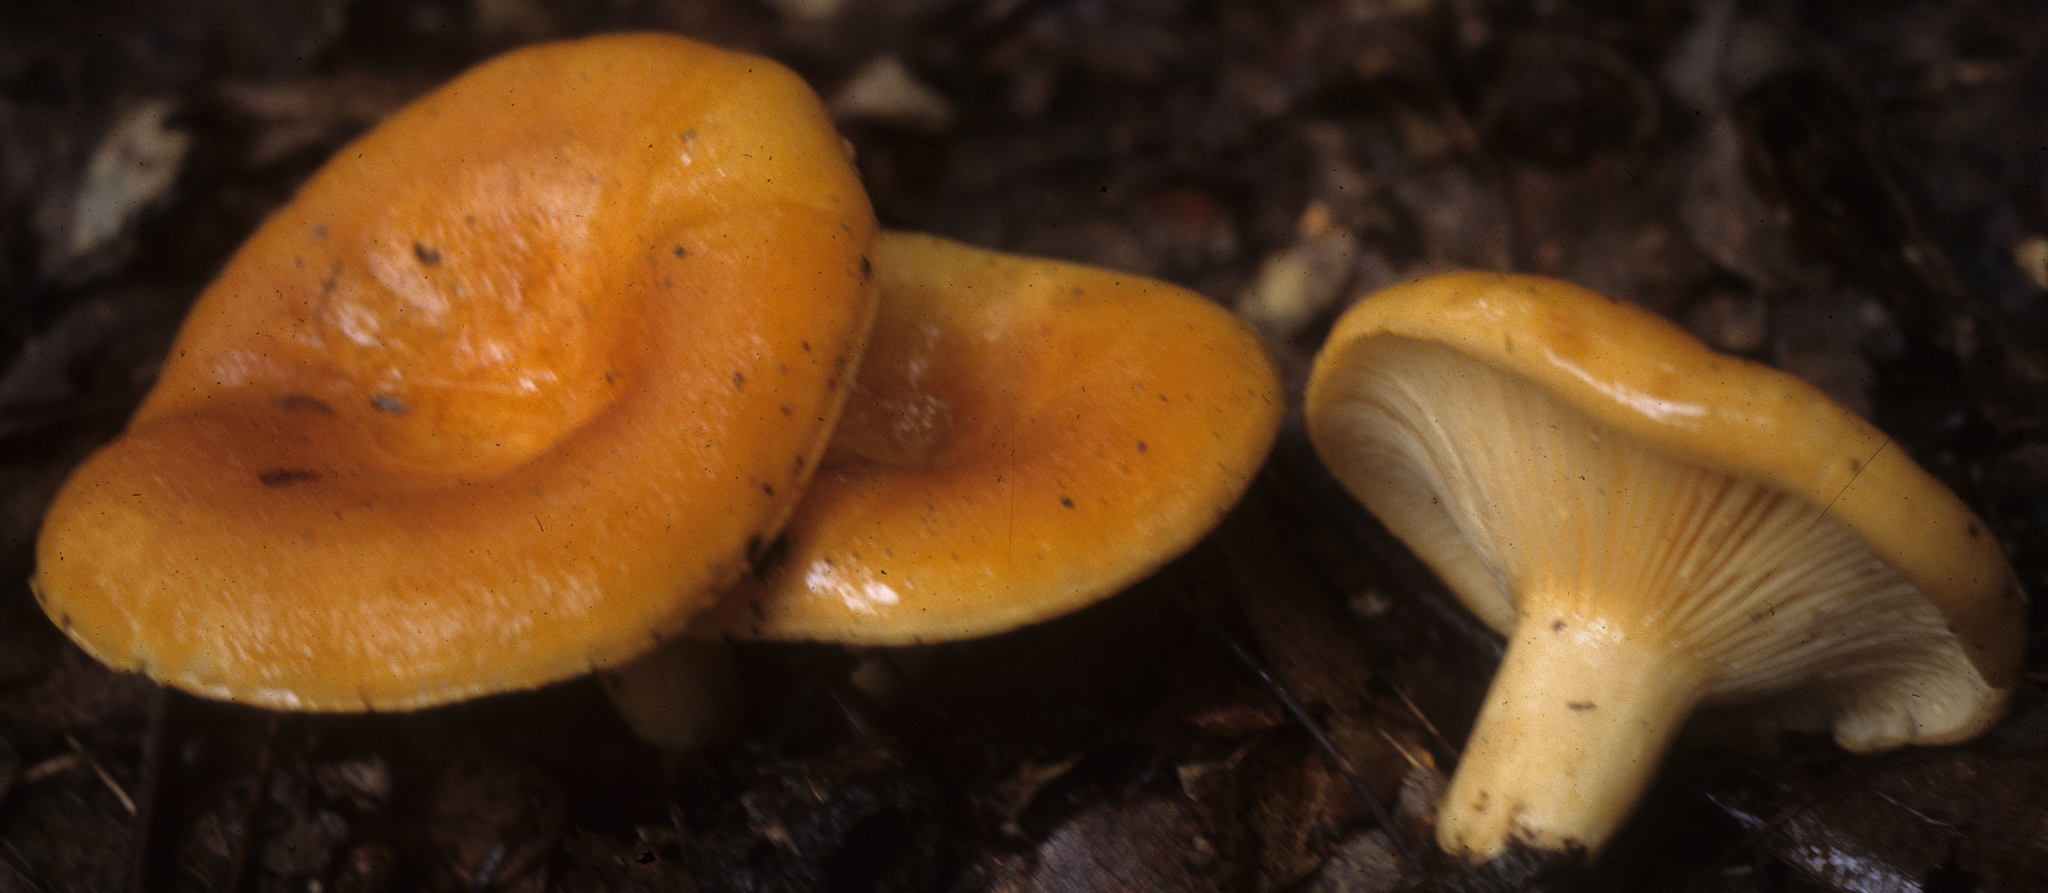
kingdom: Fungi
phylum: Basidiomycota
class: Agaricomycetes
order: Russulales
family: Russulaceae
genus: Lactarius
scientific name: Lactarius croceus
